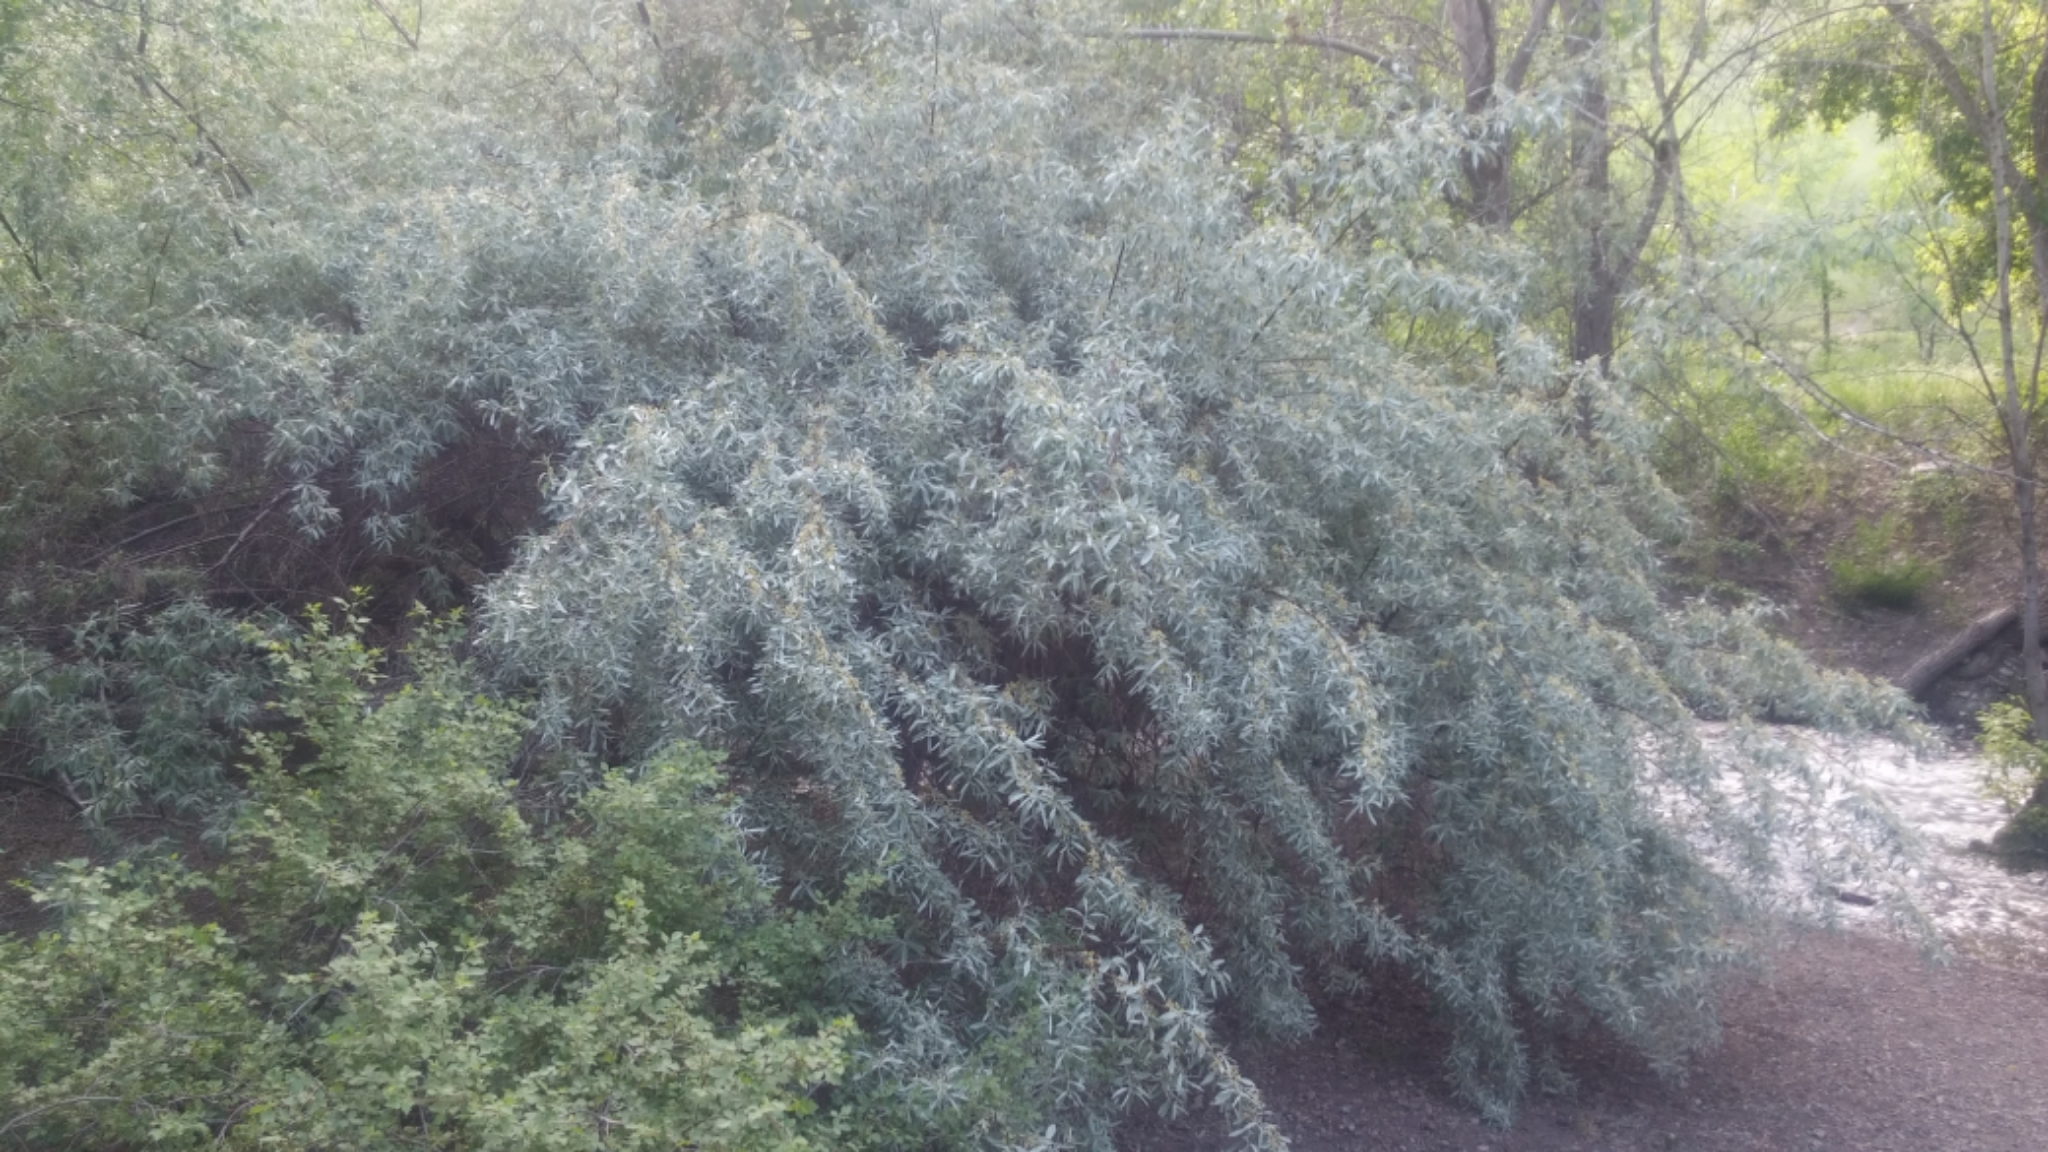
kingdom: Plantae
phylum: Tracheophyta
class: Magnoliopsida
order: Rosales
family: Elaeagnaceae
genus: Elaeagnus
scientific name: Elaeagnus angustifolia
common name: Russian olive
